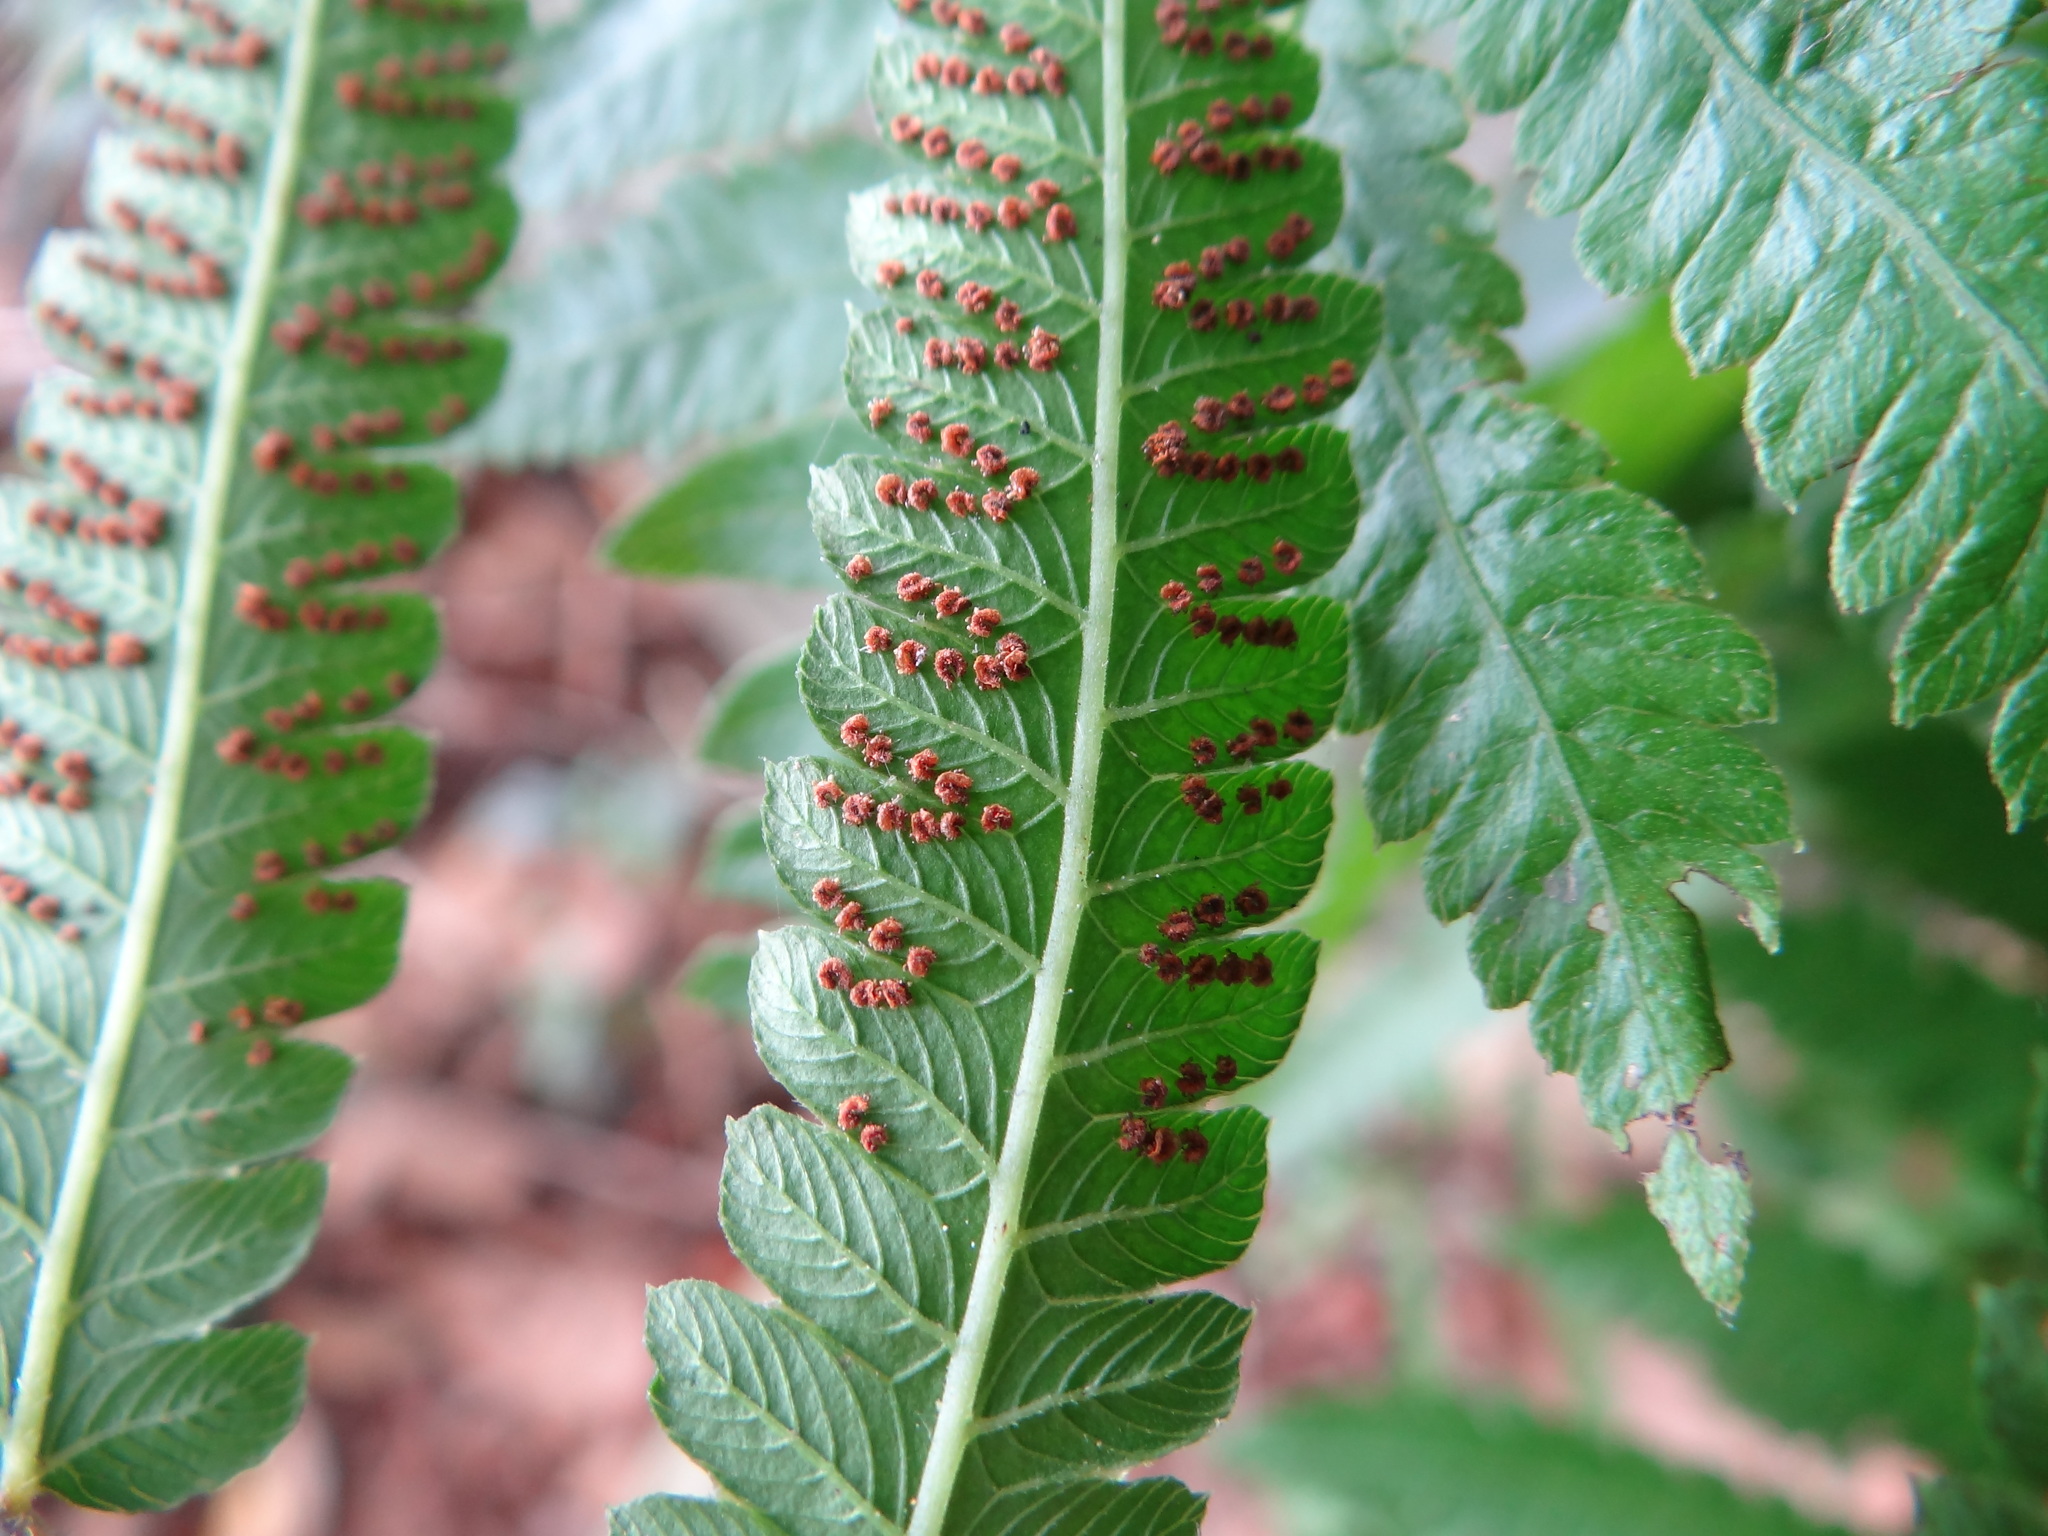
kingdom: Plantae
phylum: Tracheophyta
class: Polypodiopsida
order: Polypodiales
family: Thelypteridaceae
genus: Christella
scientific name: Christella acuminata
